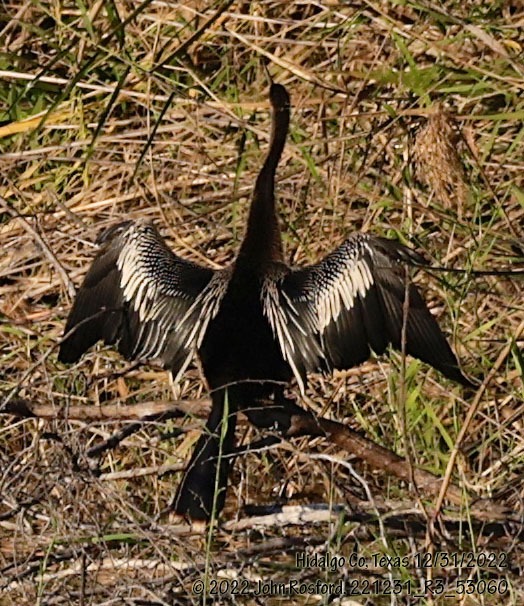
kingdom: Animalia
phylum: Chordata
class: Aves
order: Suliformes
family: Anhingidae
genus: Anhinga
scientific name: Anhinga anhinga
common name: Anhinga
